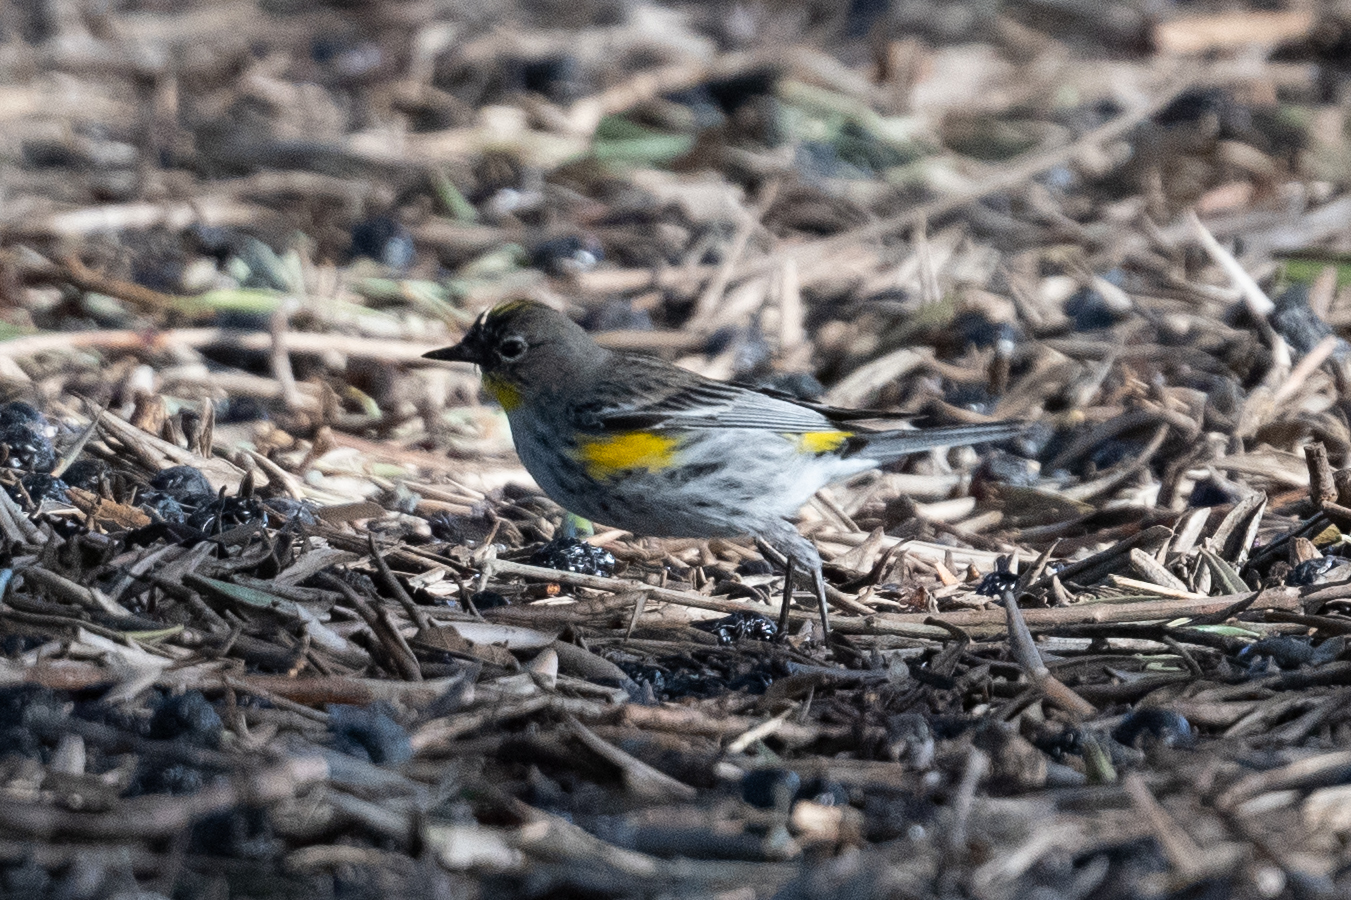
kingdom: Animalia
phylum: Chordata
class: Aves
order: Passeriformes
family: Parulidae
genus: Setophaga
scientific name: Setophaga coronata
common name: Myrtle warbler
